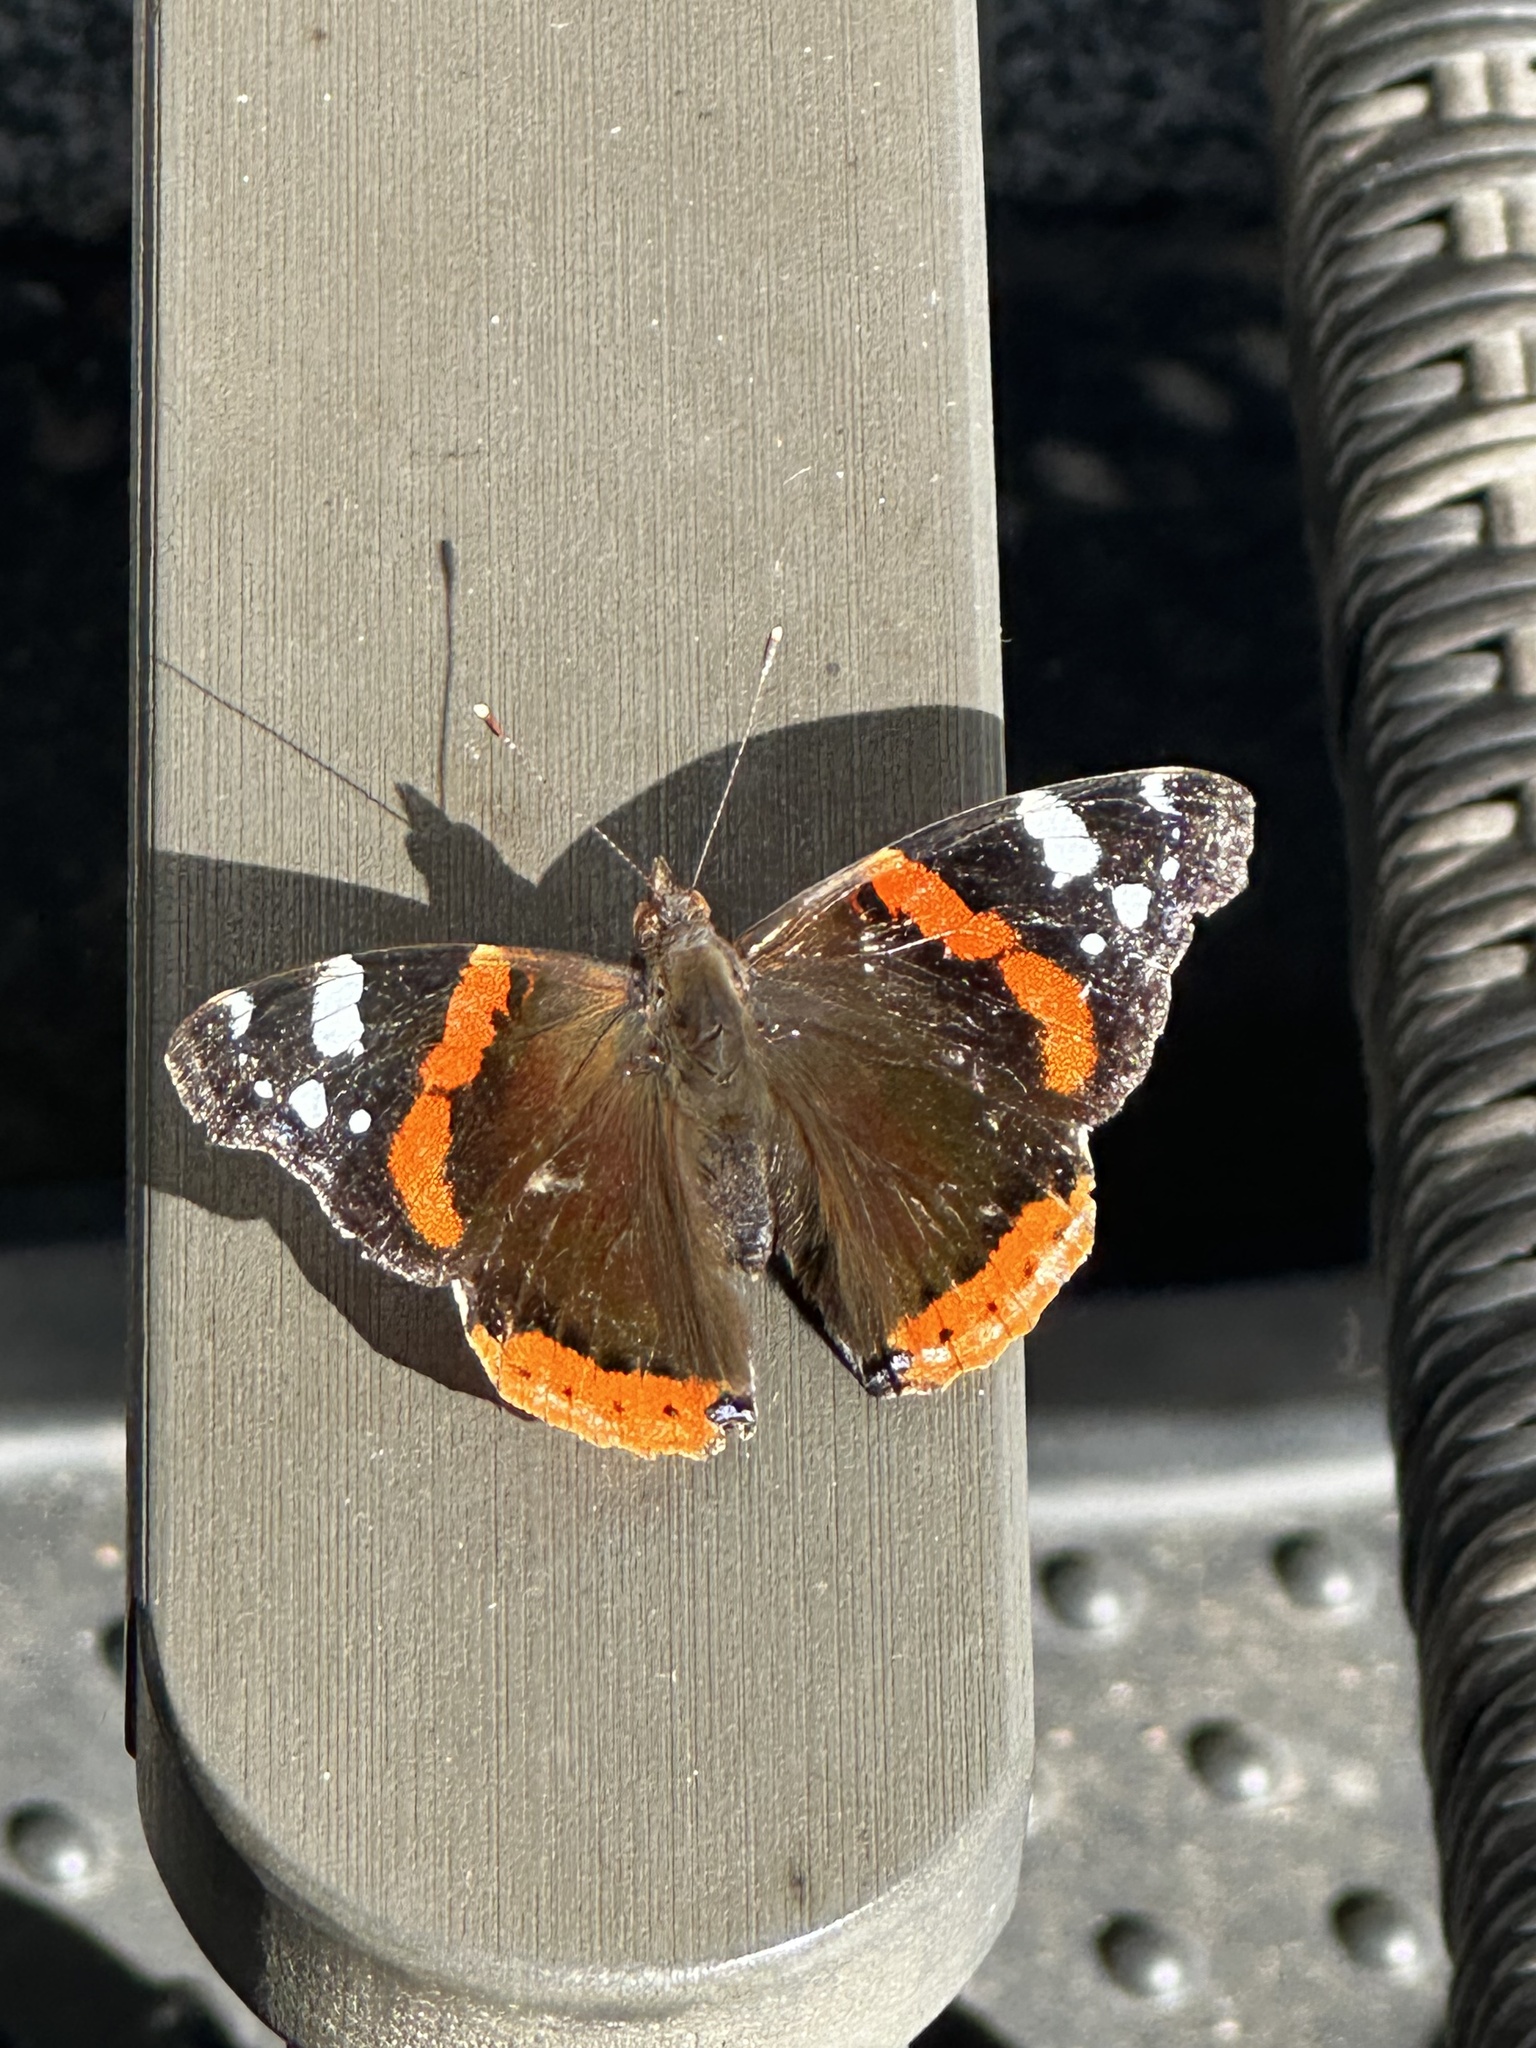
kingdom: Animalia
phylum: Arthropoda
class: Insecta
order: Lepidoptera
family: Nymphalidae
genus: Vanessa
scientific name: Vanessa atalanta
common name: Red admiral
